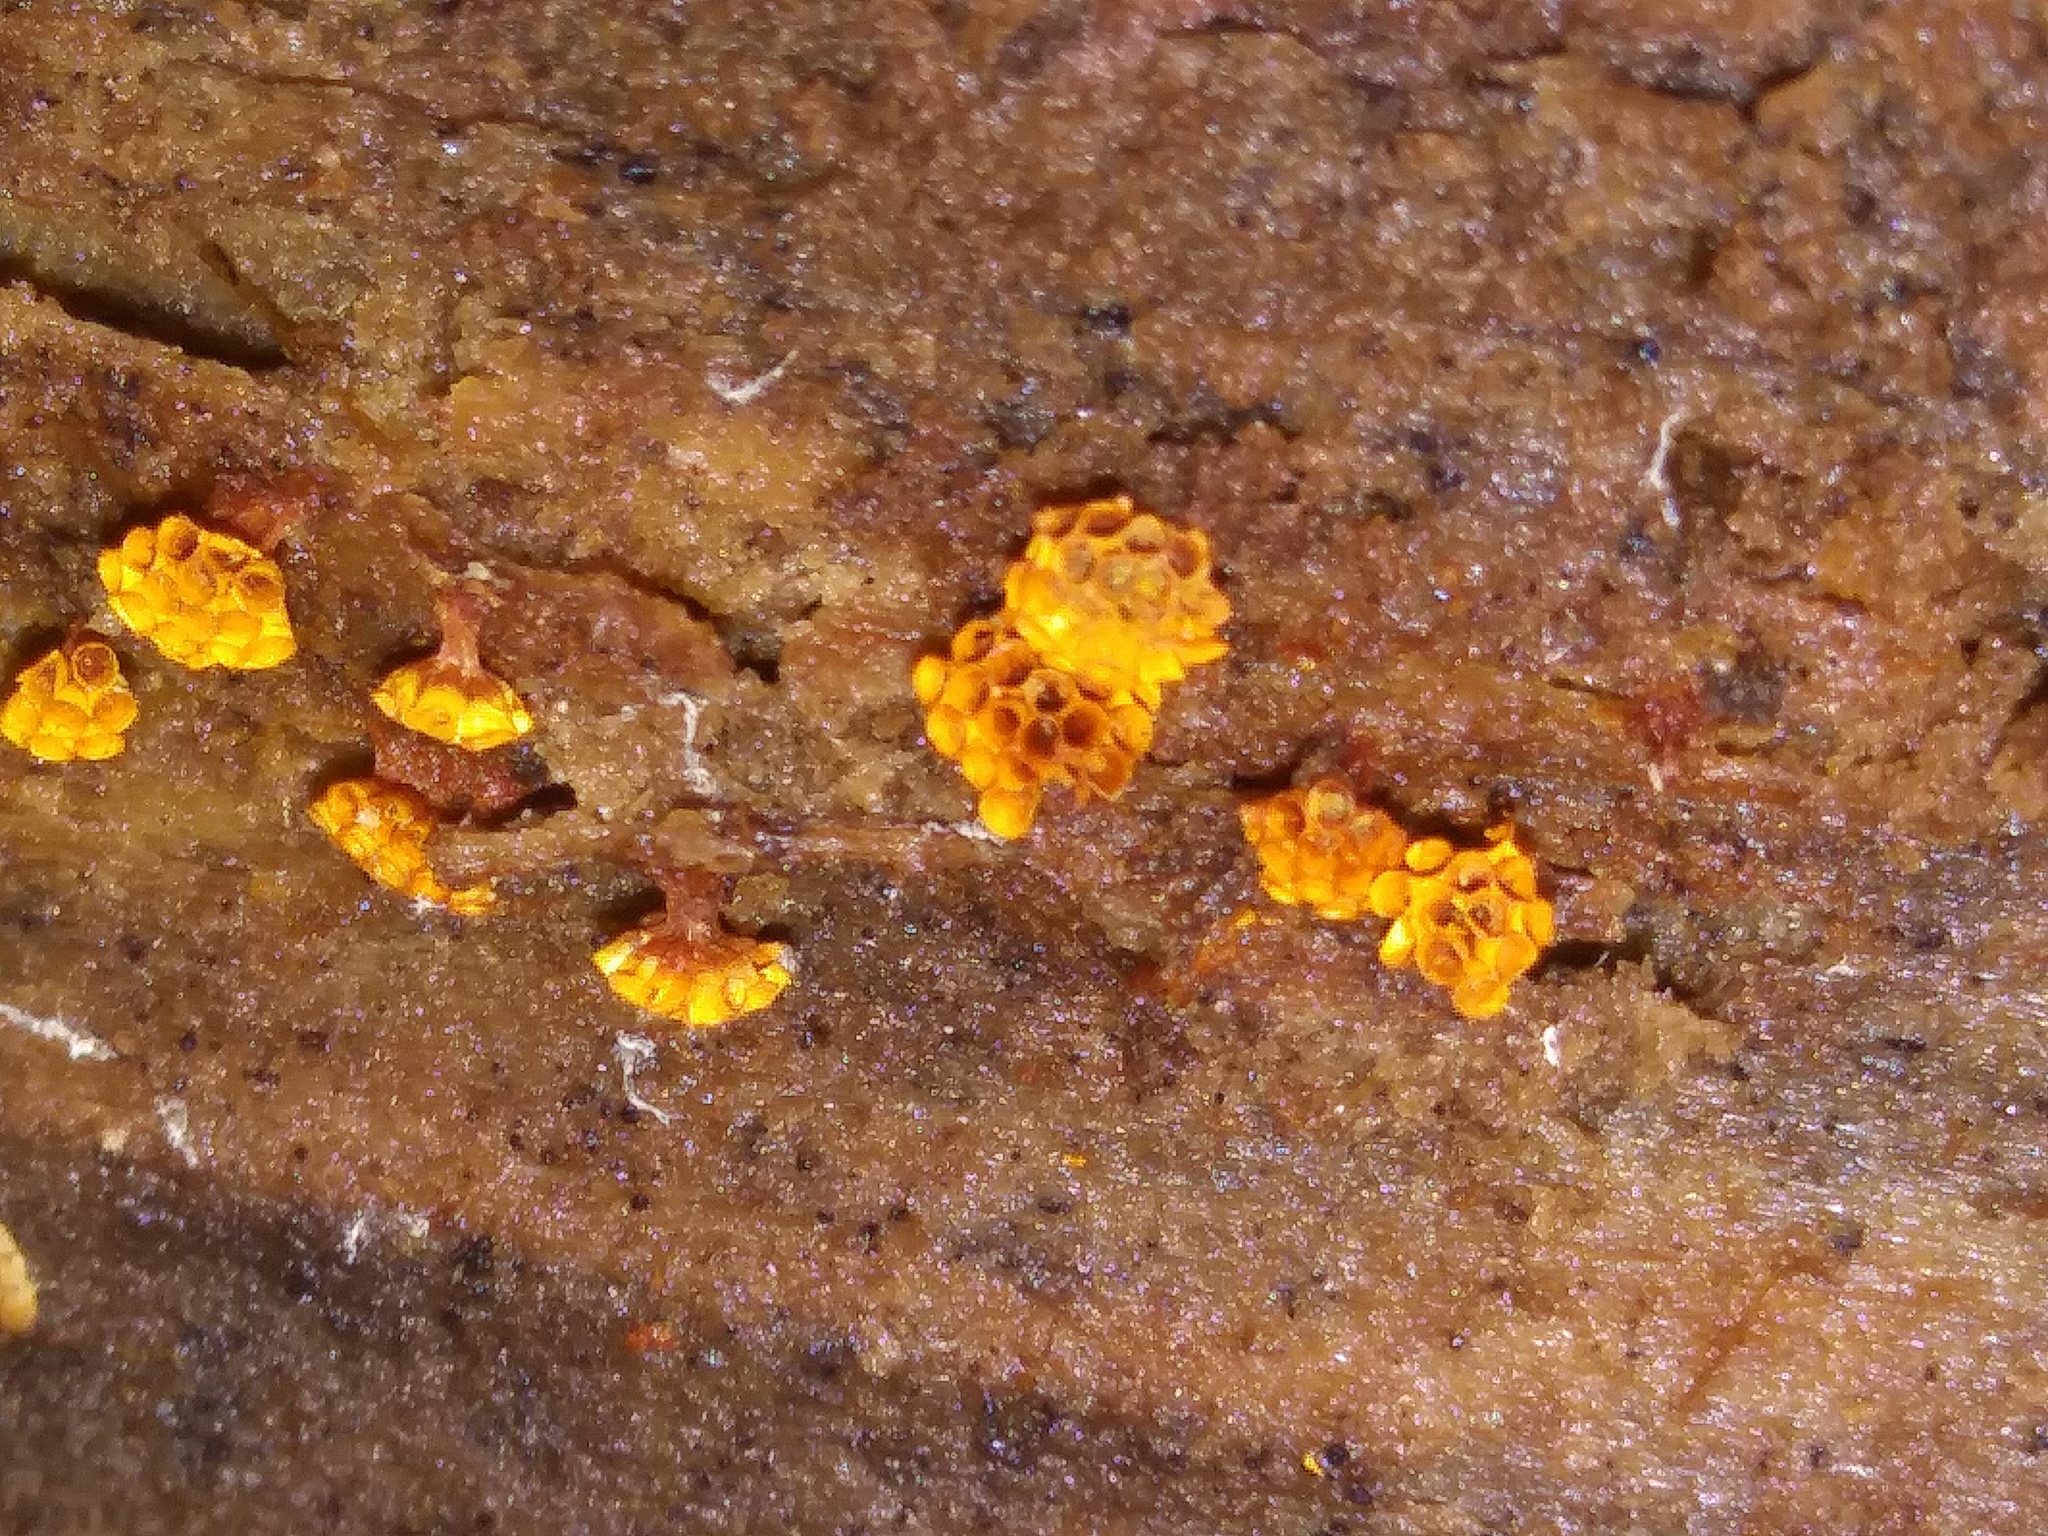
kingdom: Protozoa
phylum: Mycetozoa
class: Myxomycetes
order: Trichiales
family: Trichiaceae
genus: Metatrichia
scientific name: Metatrichia vesparia
